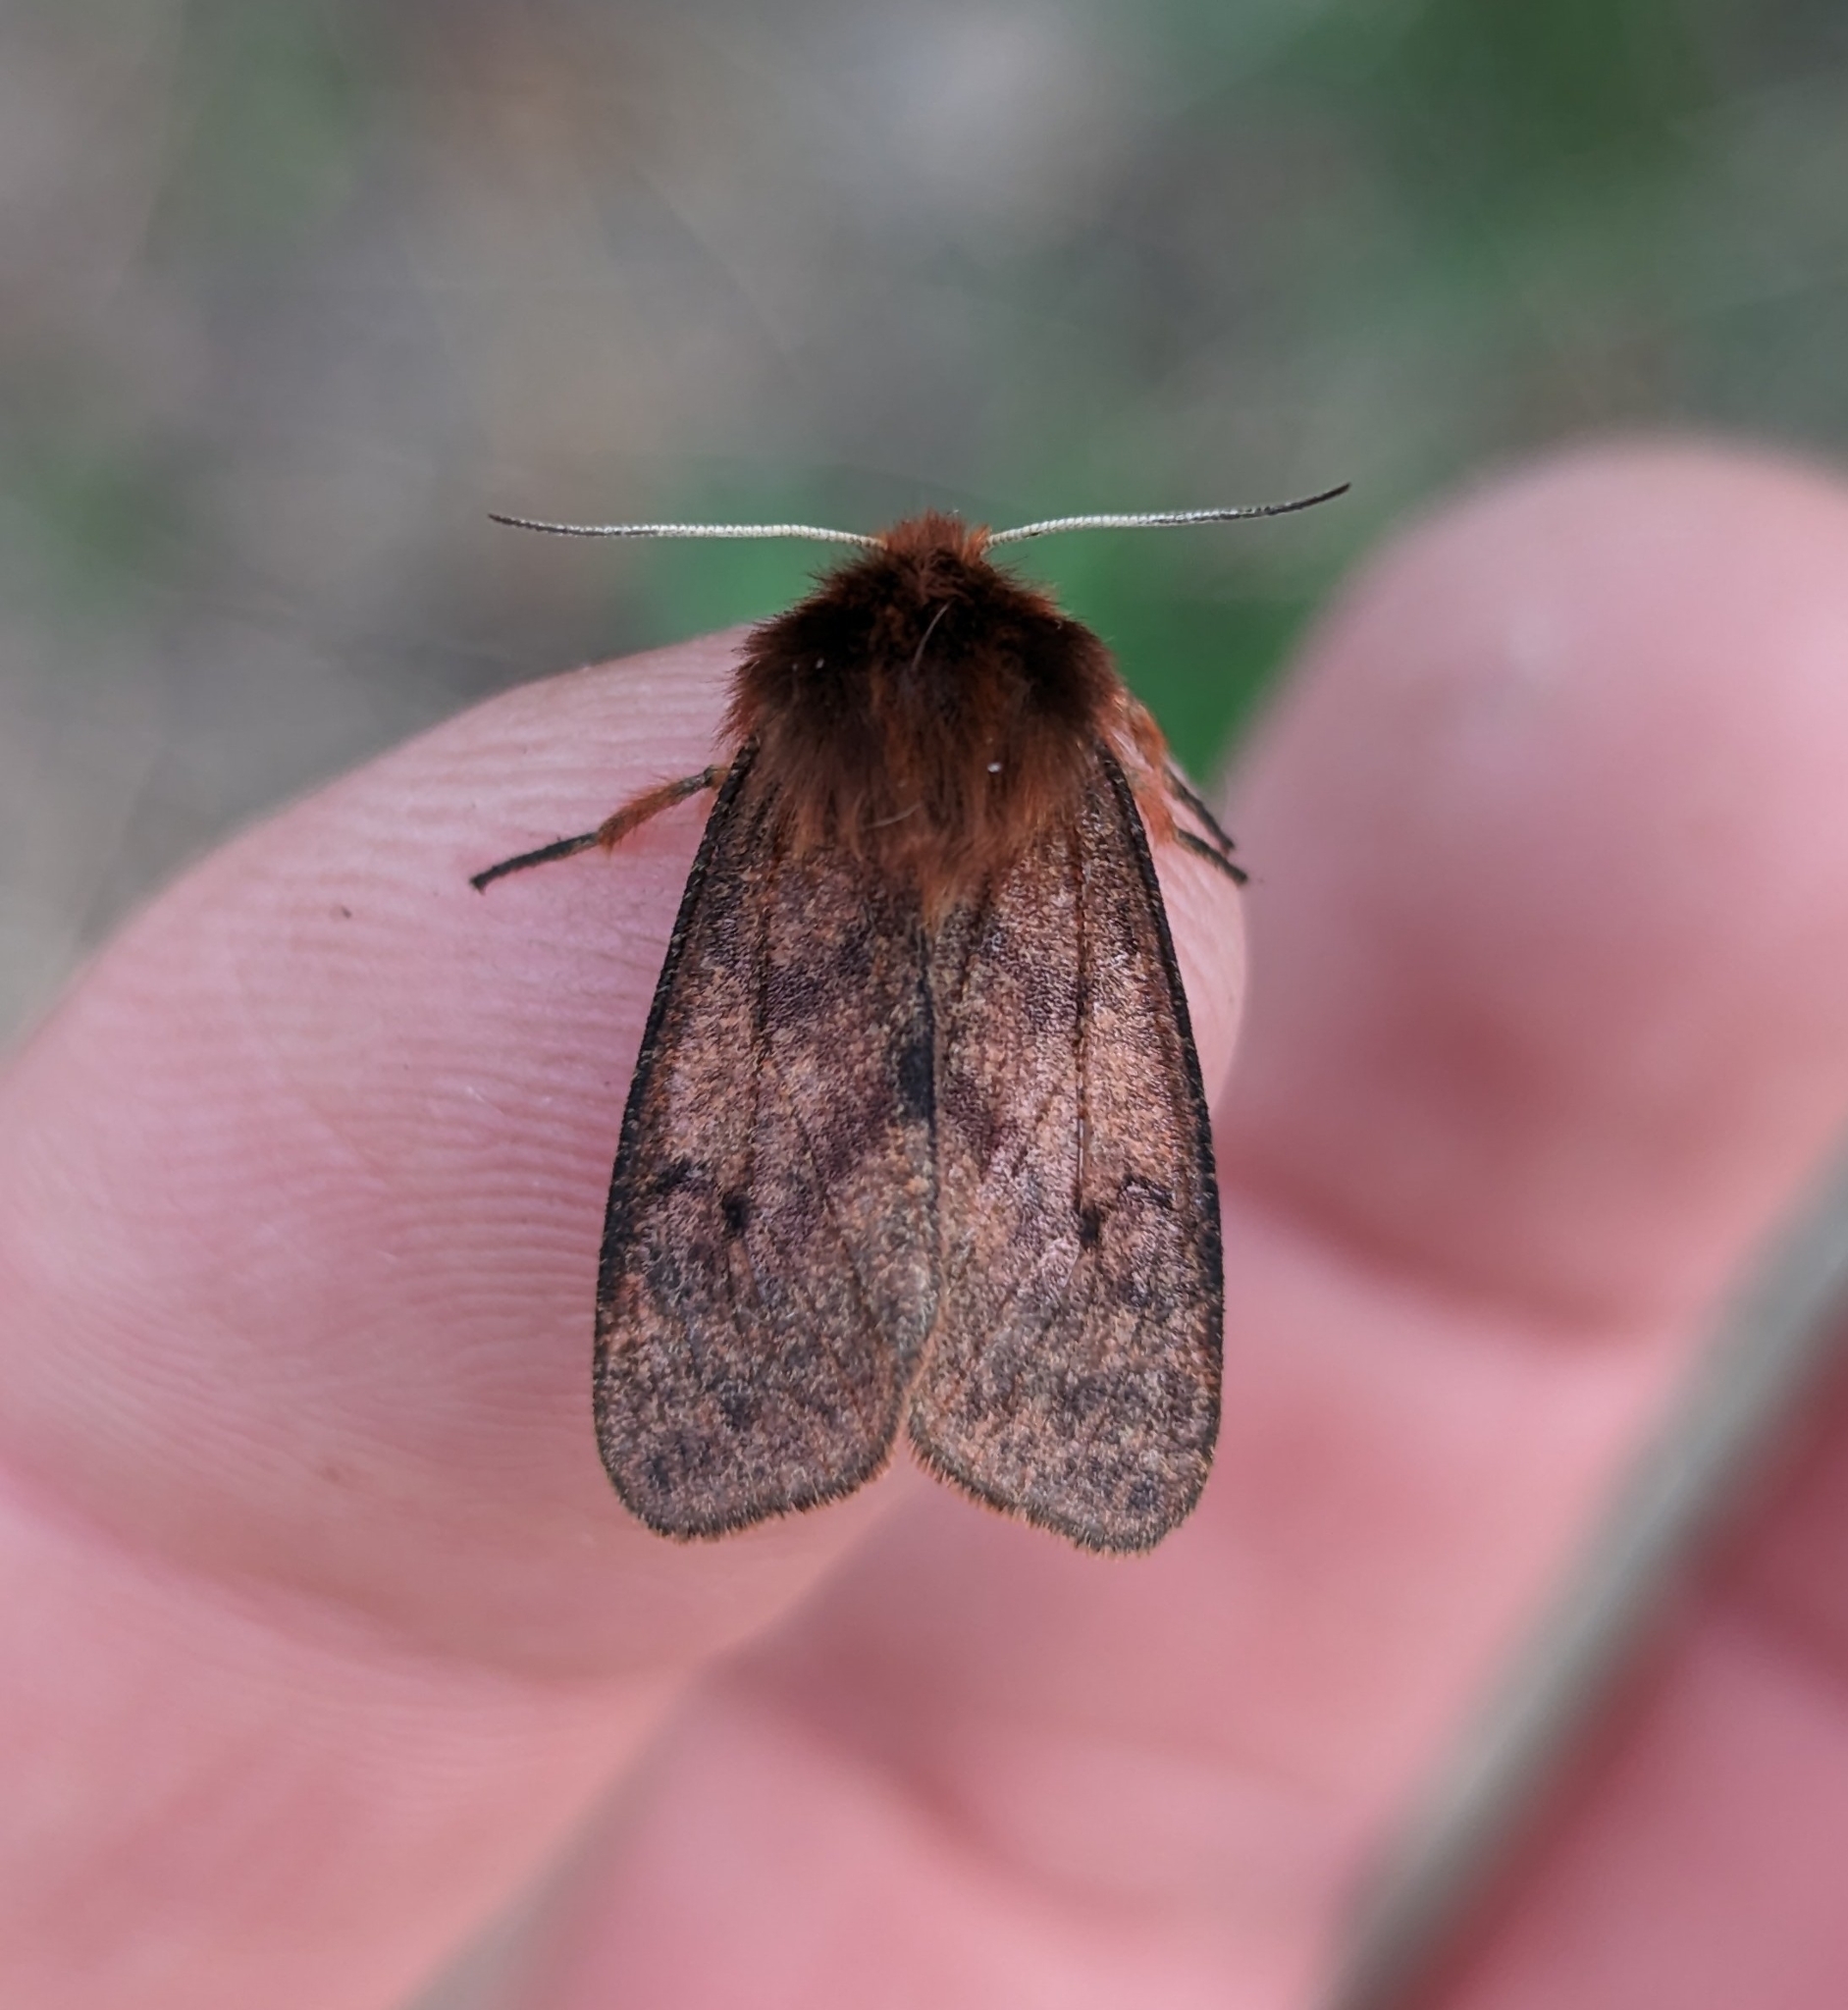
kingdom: Animalia
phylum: Arthropoda
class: Insecta
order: Lepidoptera
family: Erebidae
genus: Phragmatobia
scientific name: Phragmatobia assimilans
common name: Large ruby tiger moth
